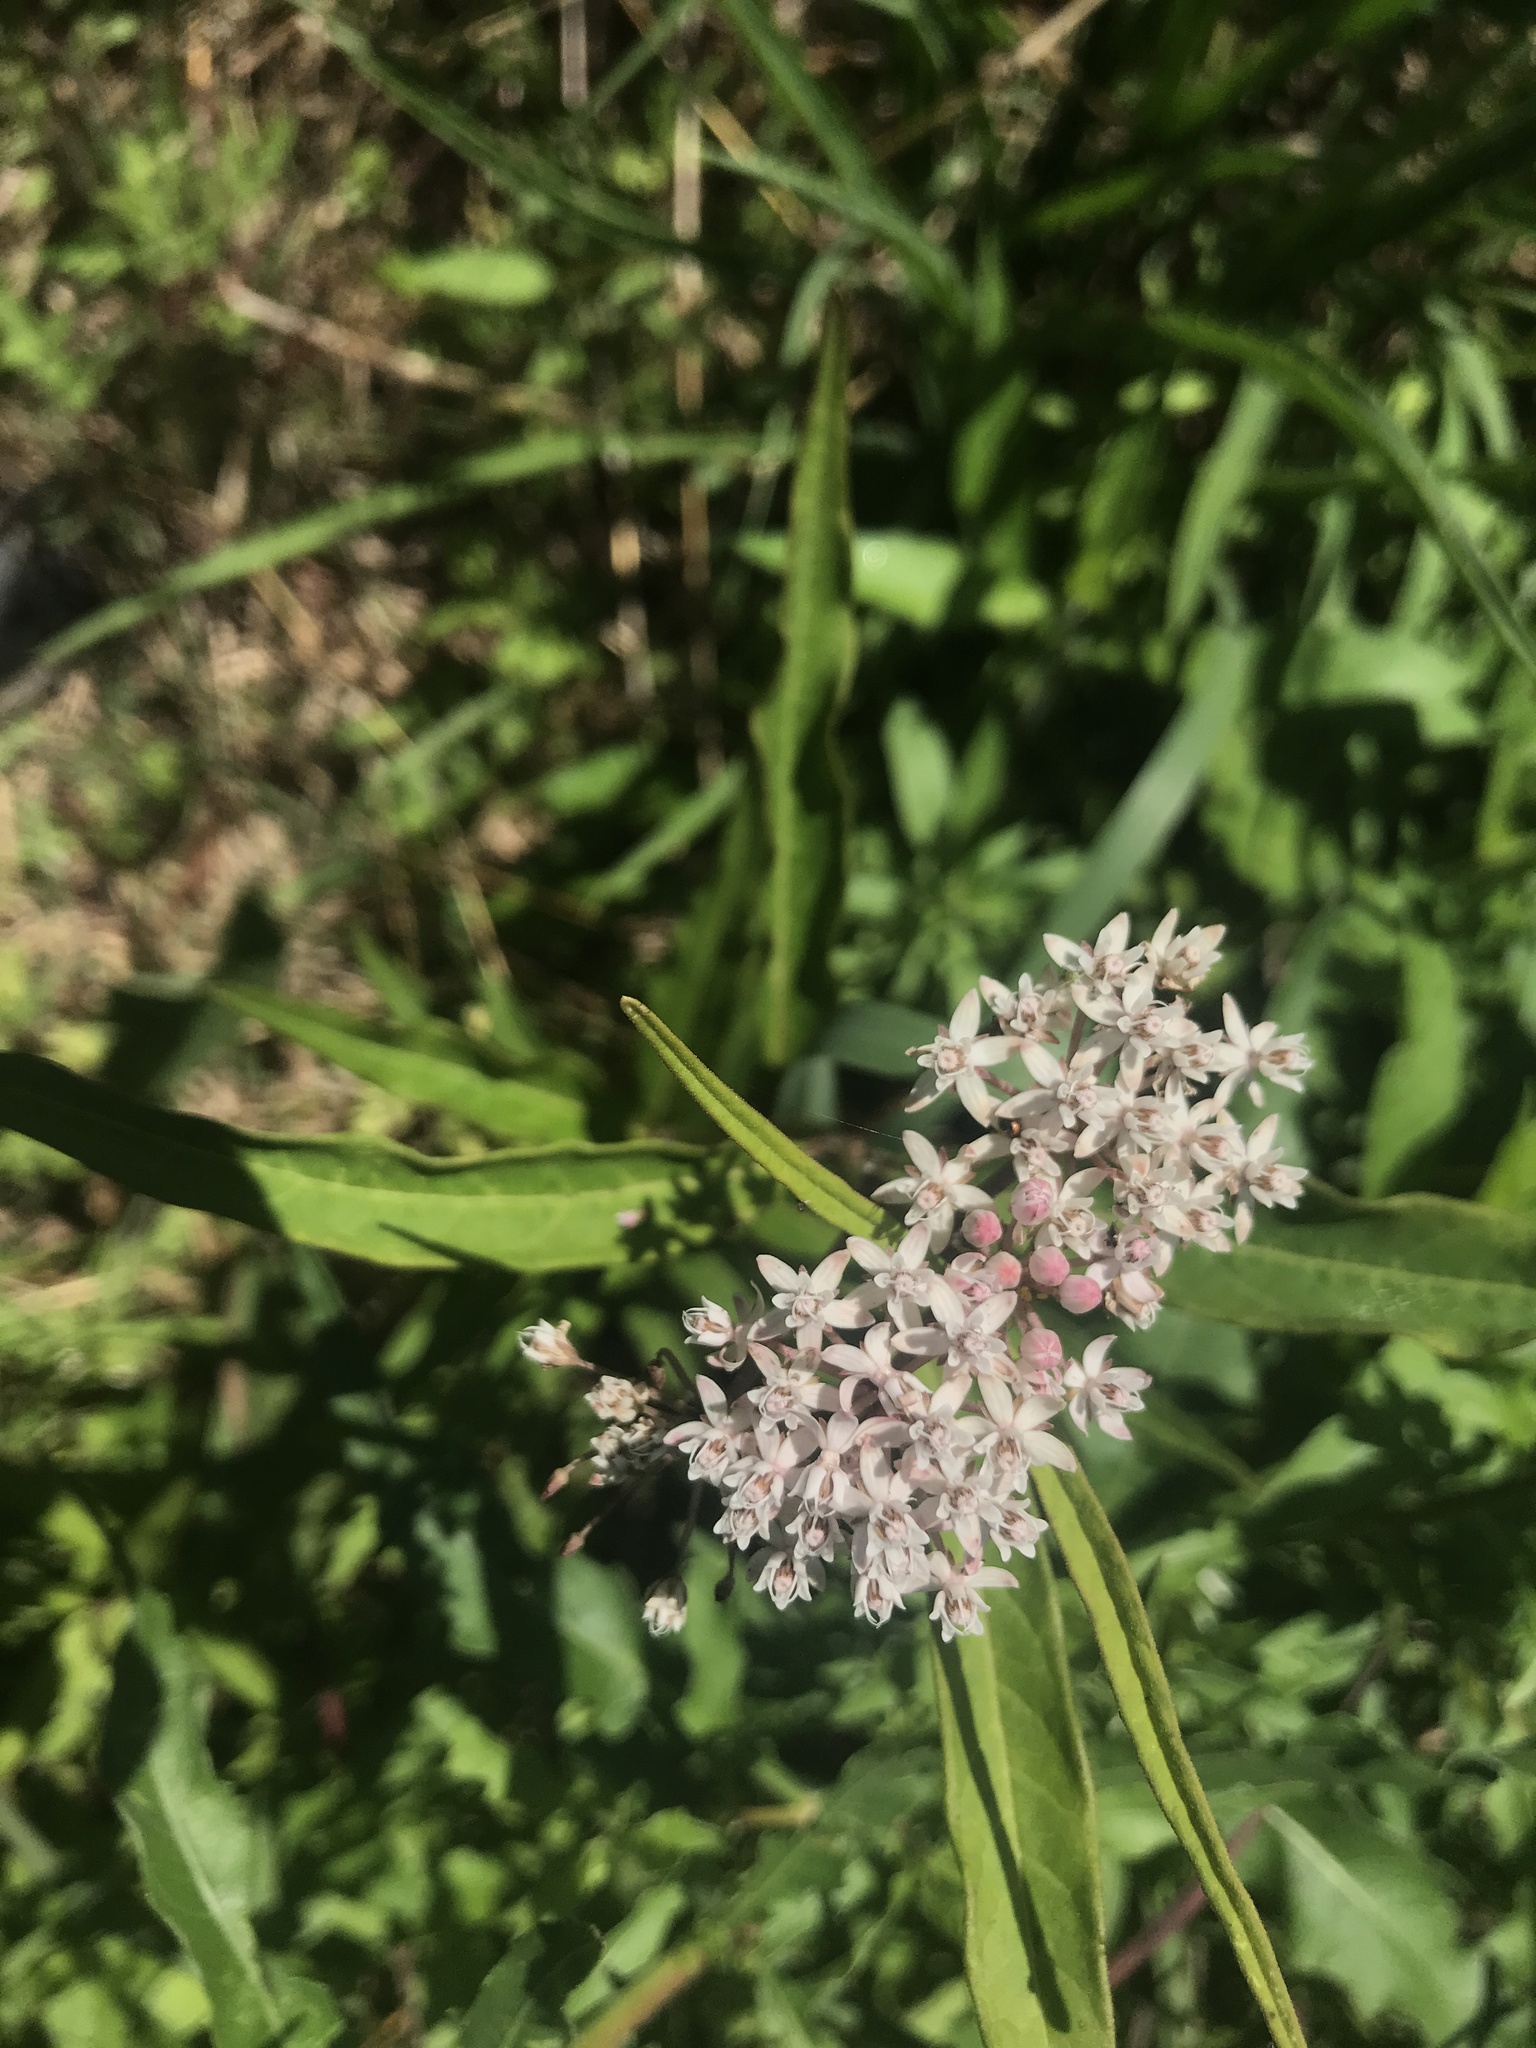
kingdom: Plantae
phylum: Tracheophyta
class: Magnoliopsida
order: Gentianales
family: Apocynaceae
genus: Asclepias
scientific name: Asclepias perennis
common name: Smooth-seed milkweed
